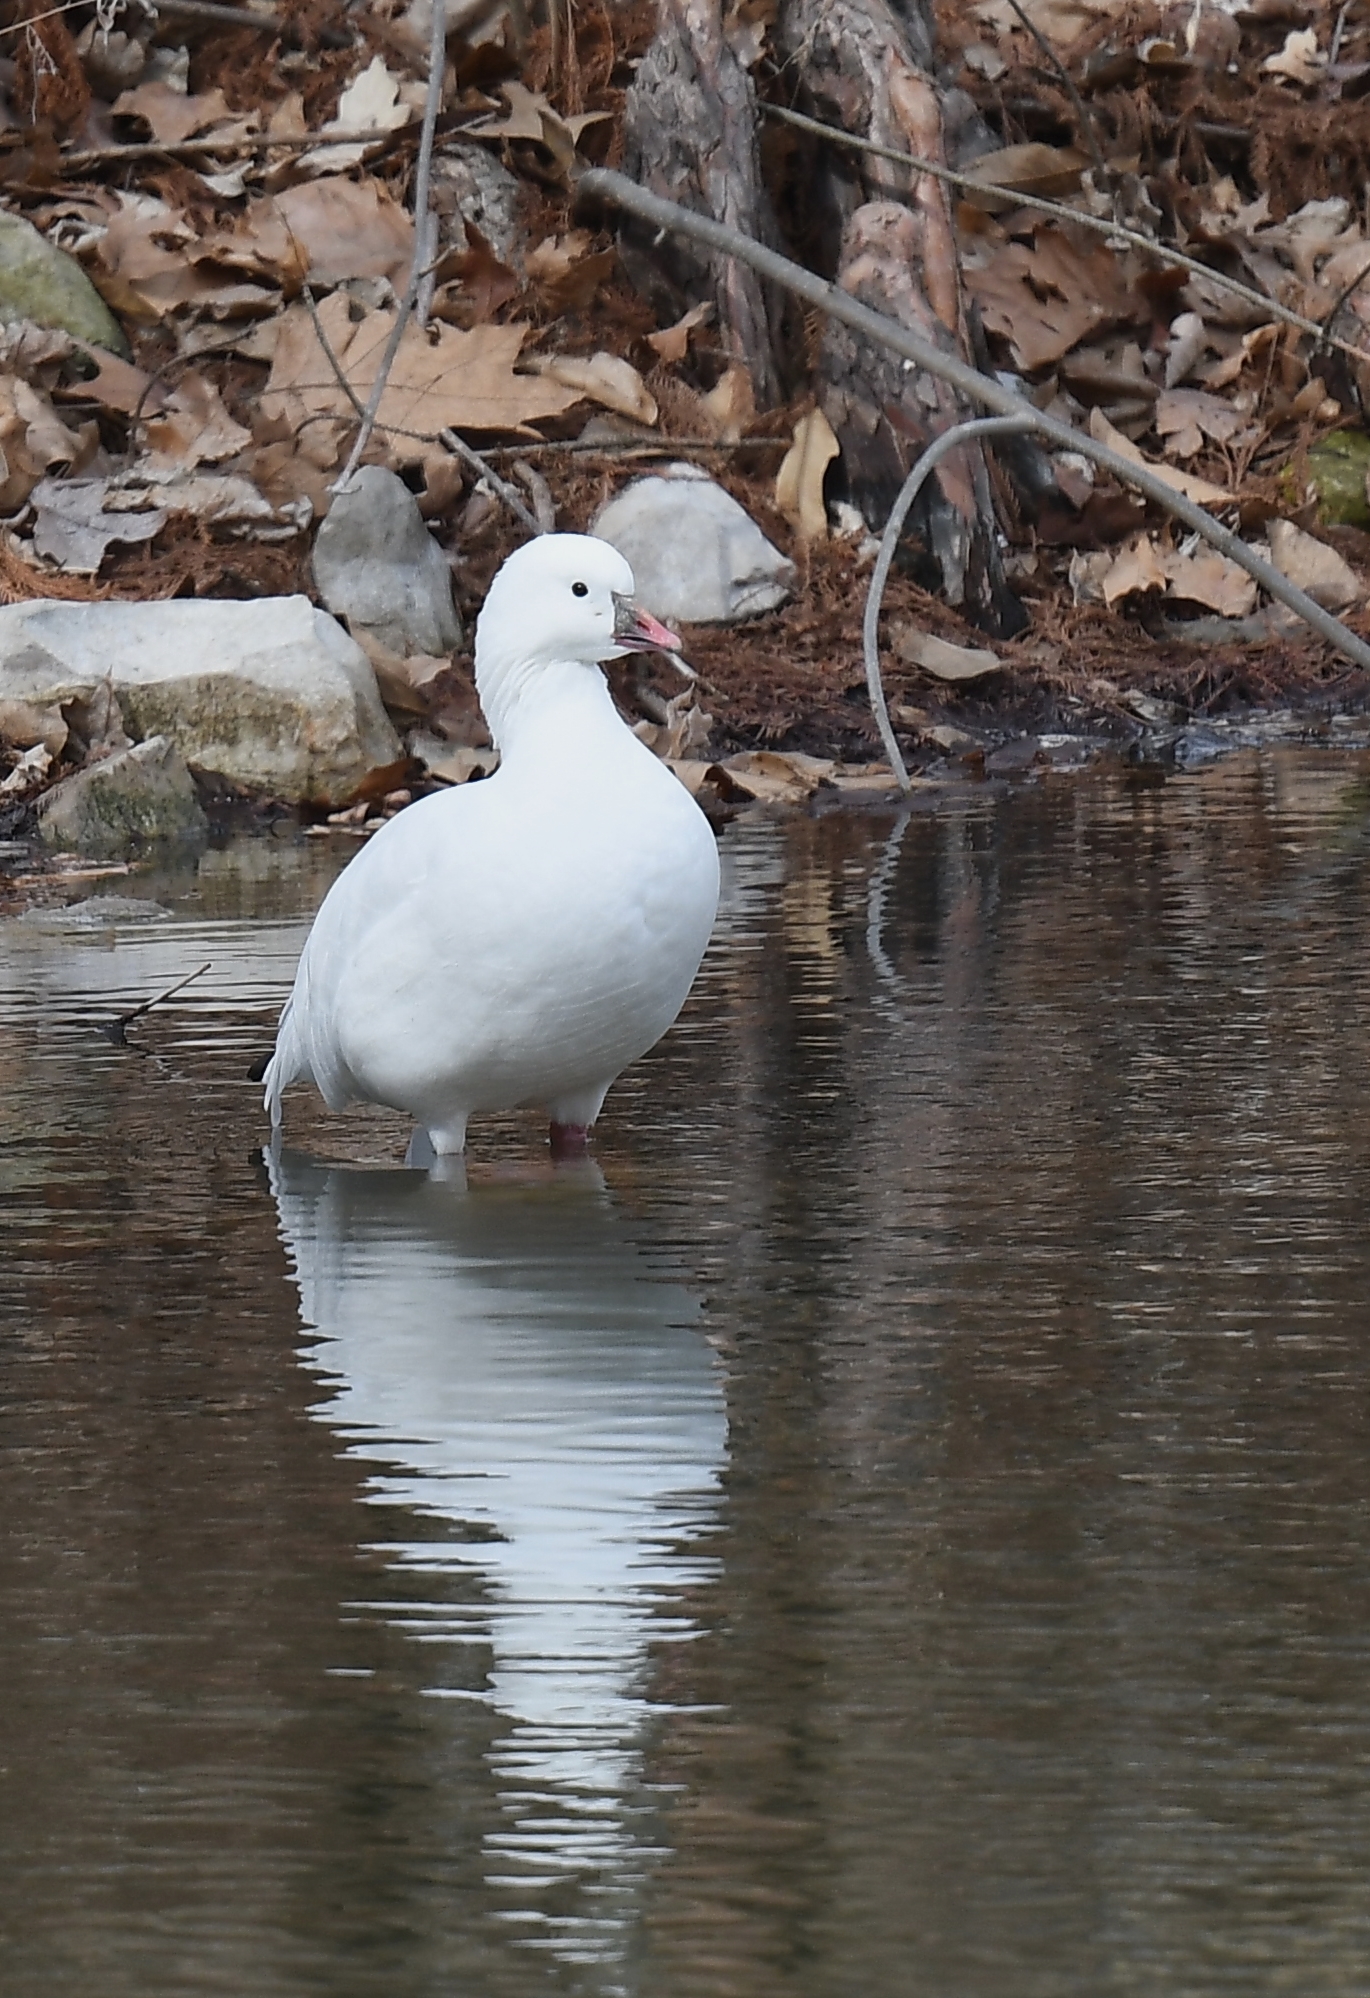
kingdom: Animalia
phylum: Chordata
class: Aves
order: Anseriformes
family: Anatidae
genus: Anser
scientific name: Anser rossii
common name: Ross's goose
